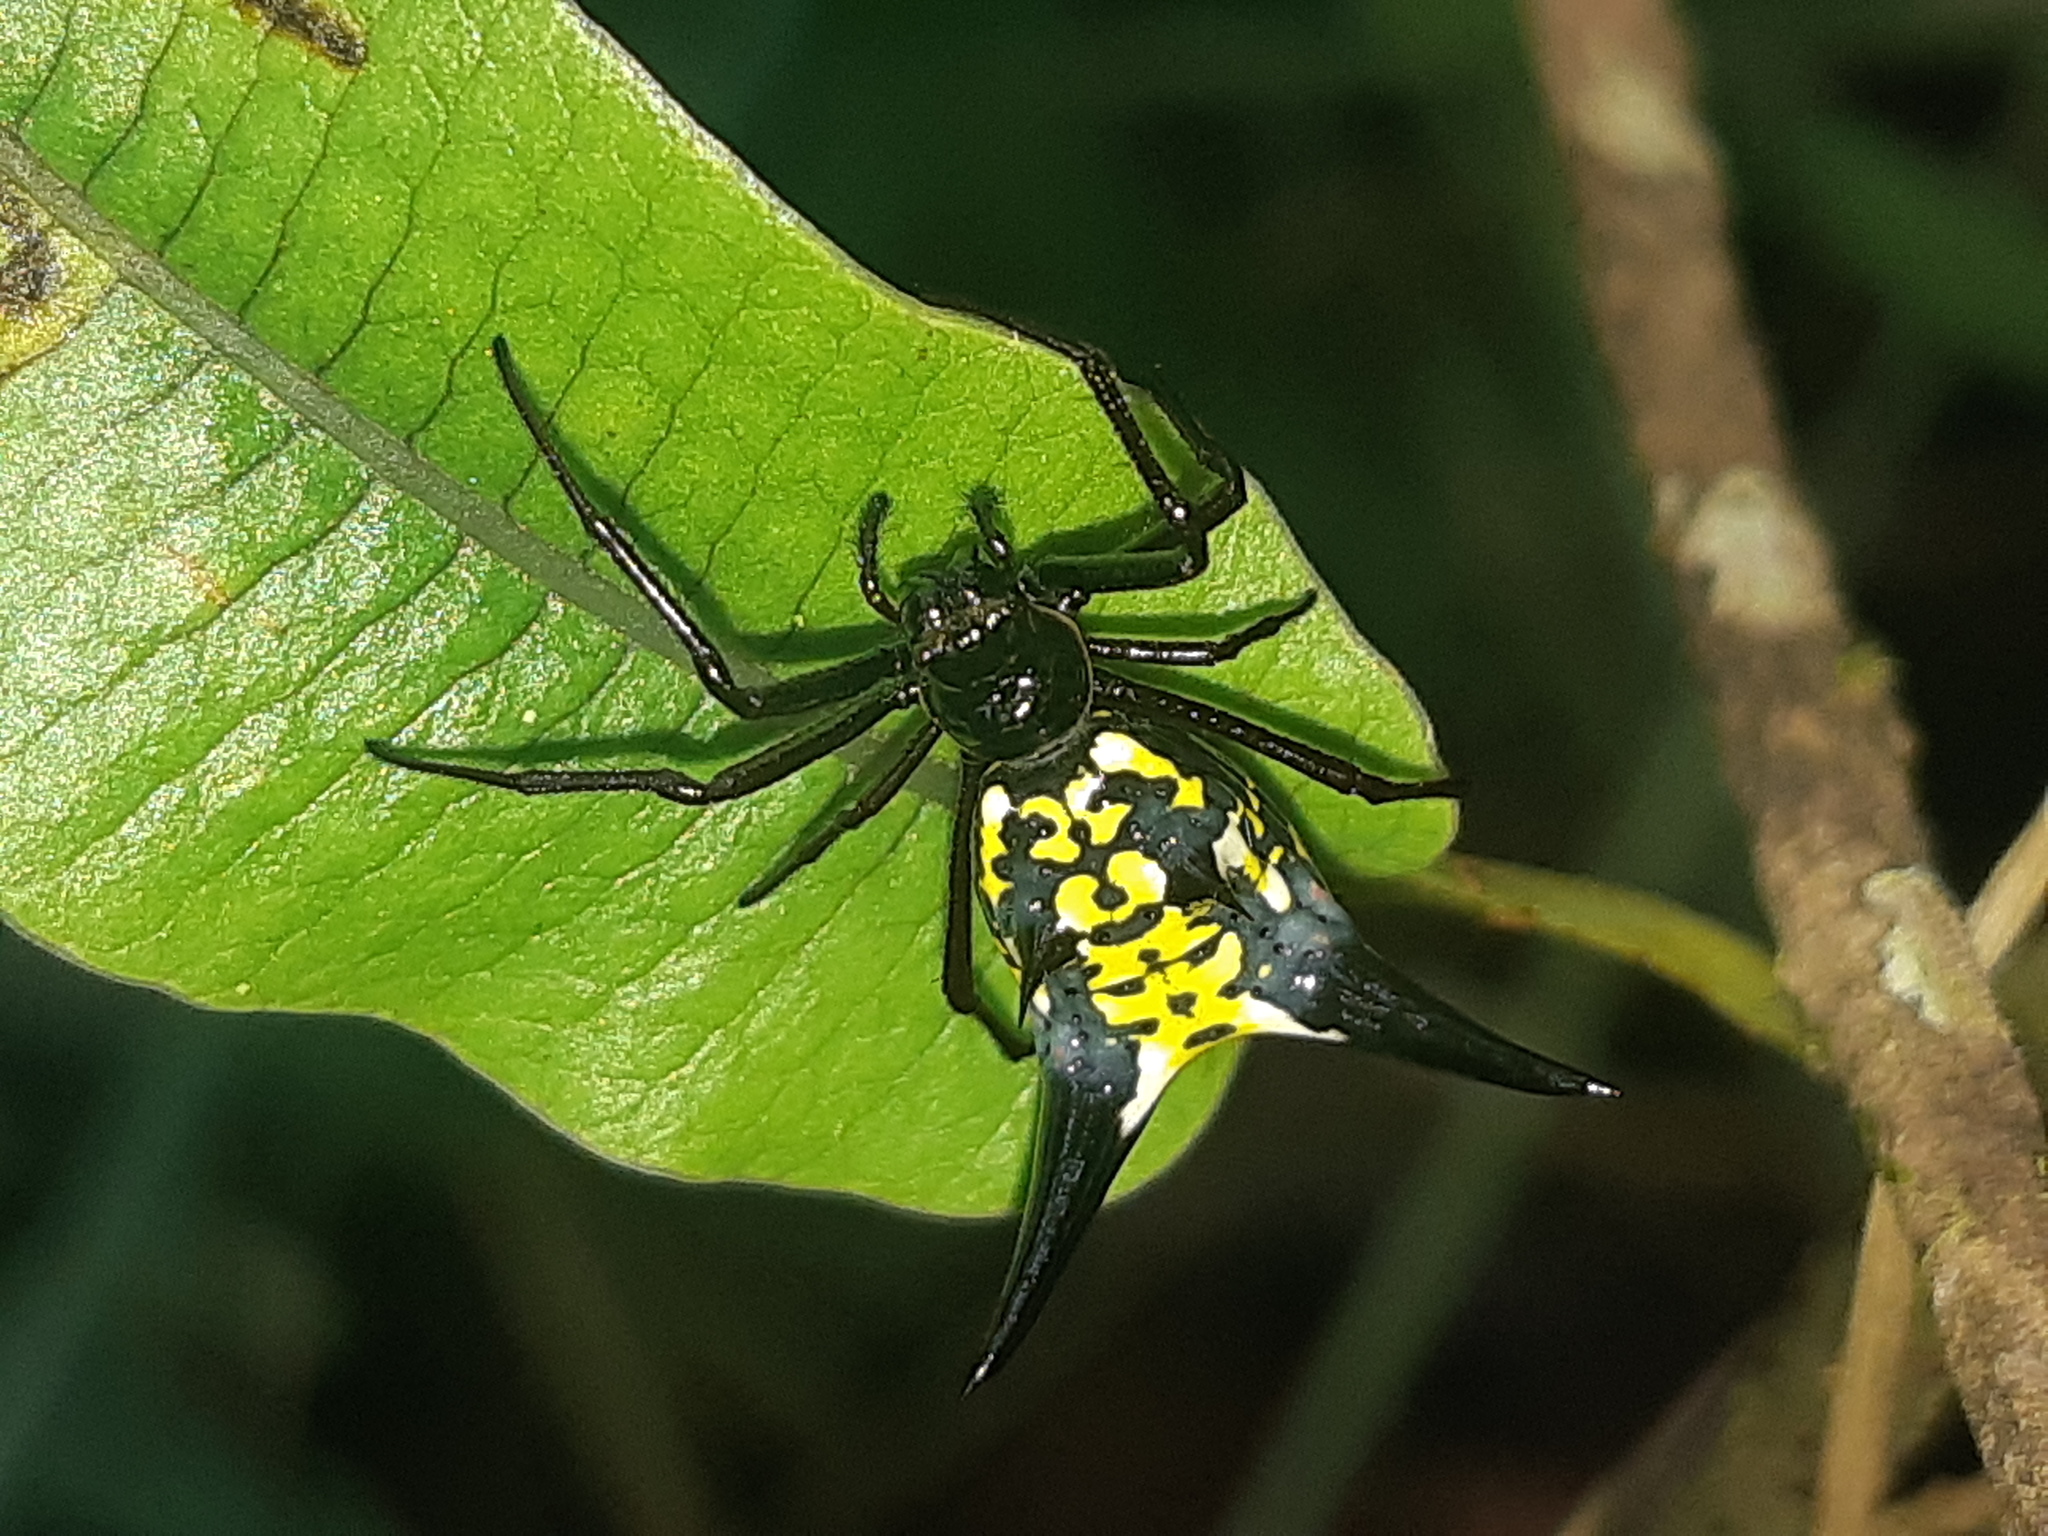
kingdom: Animalia
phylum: Arthropoda
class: Arachnida
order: Araneae
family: Araneidae
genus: Micrathena
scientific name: Micrathena raimondi
